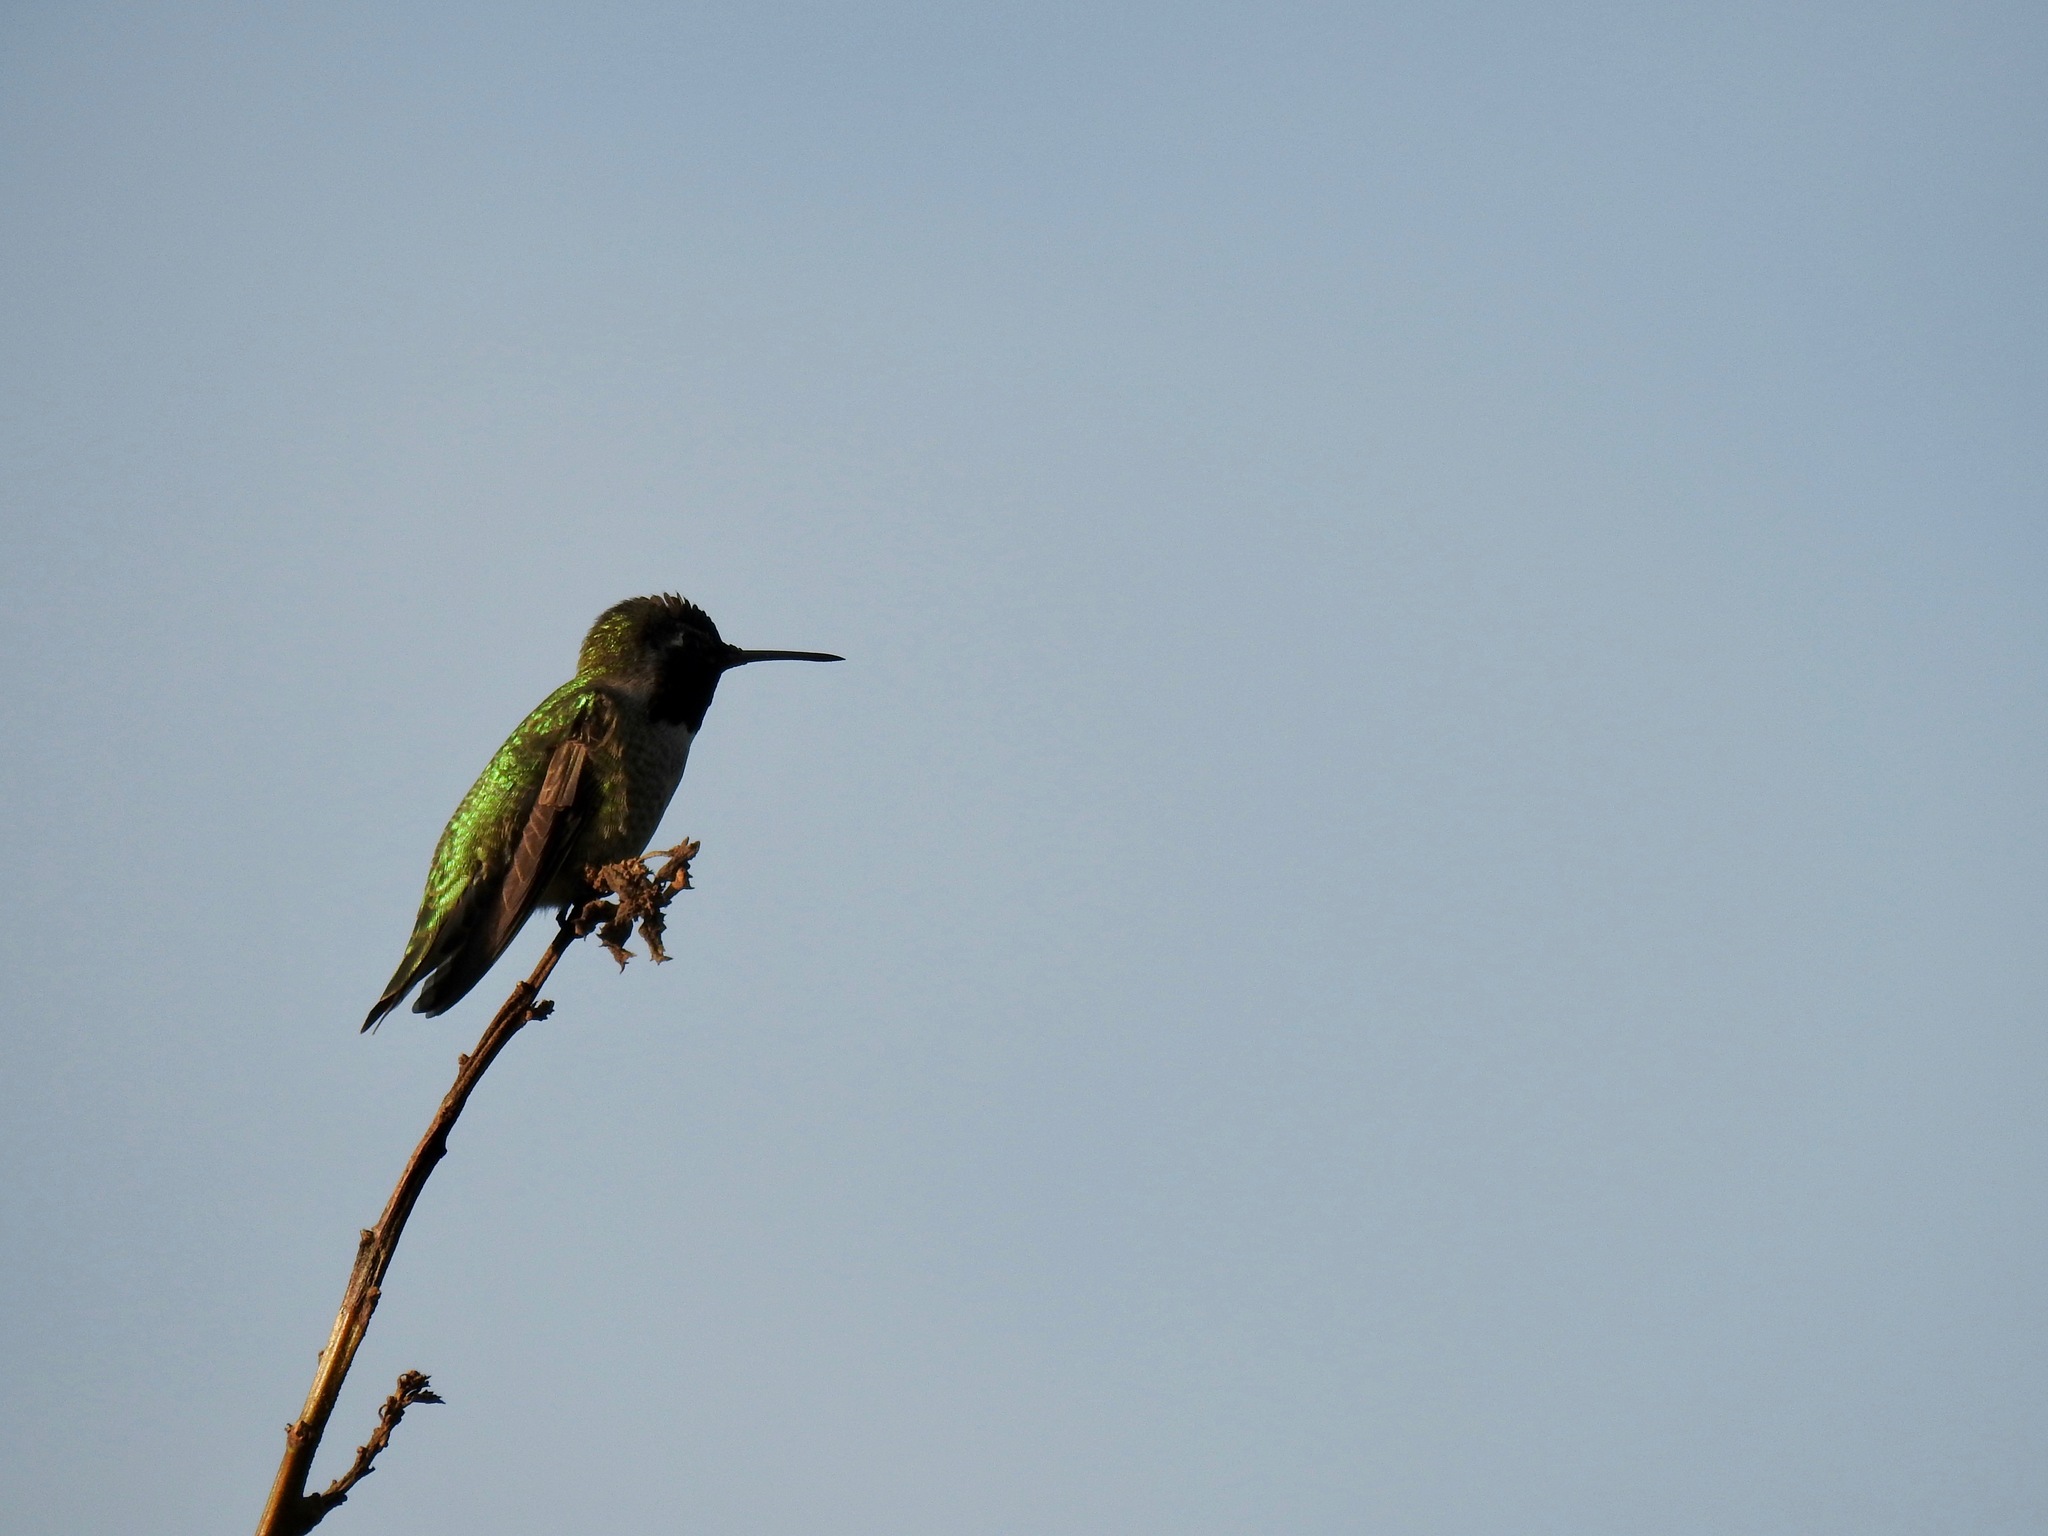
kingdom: Animalia
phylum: Chordata
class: Aves
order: Apodiformes
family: Trochilidae
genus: Calypte
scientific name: Calypte anna
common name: Anna's hummingbird
